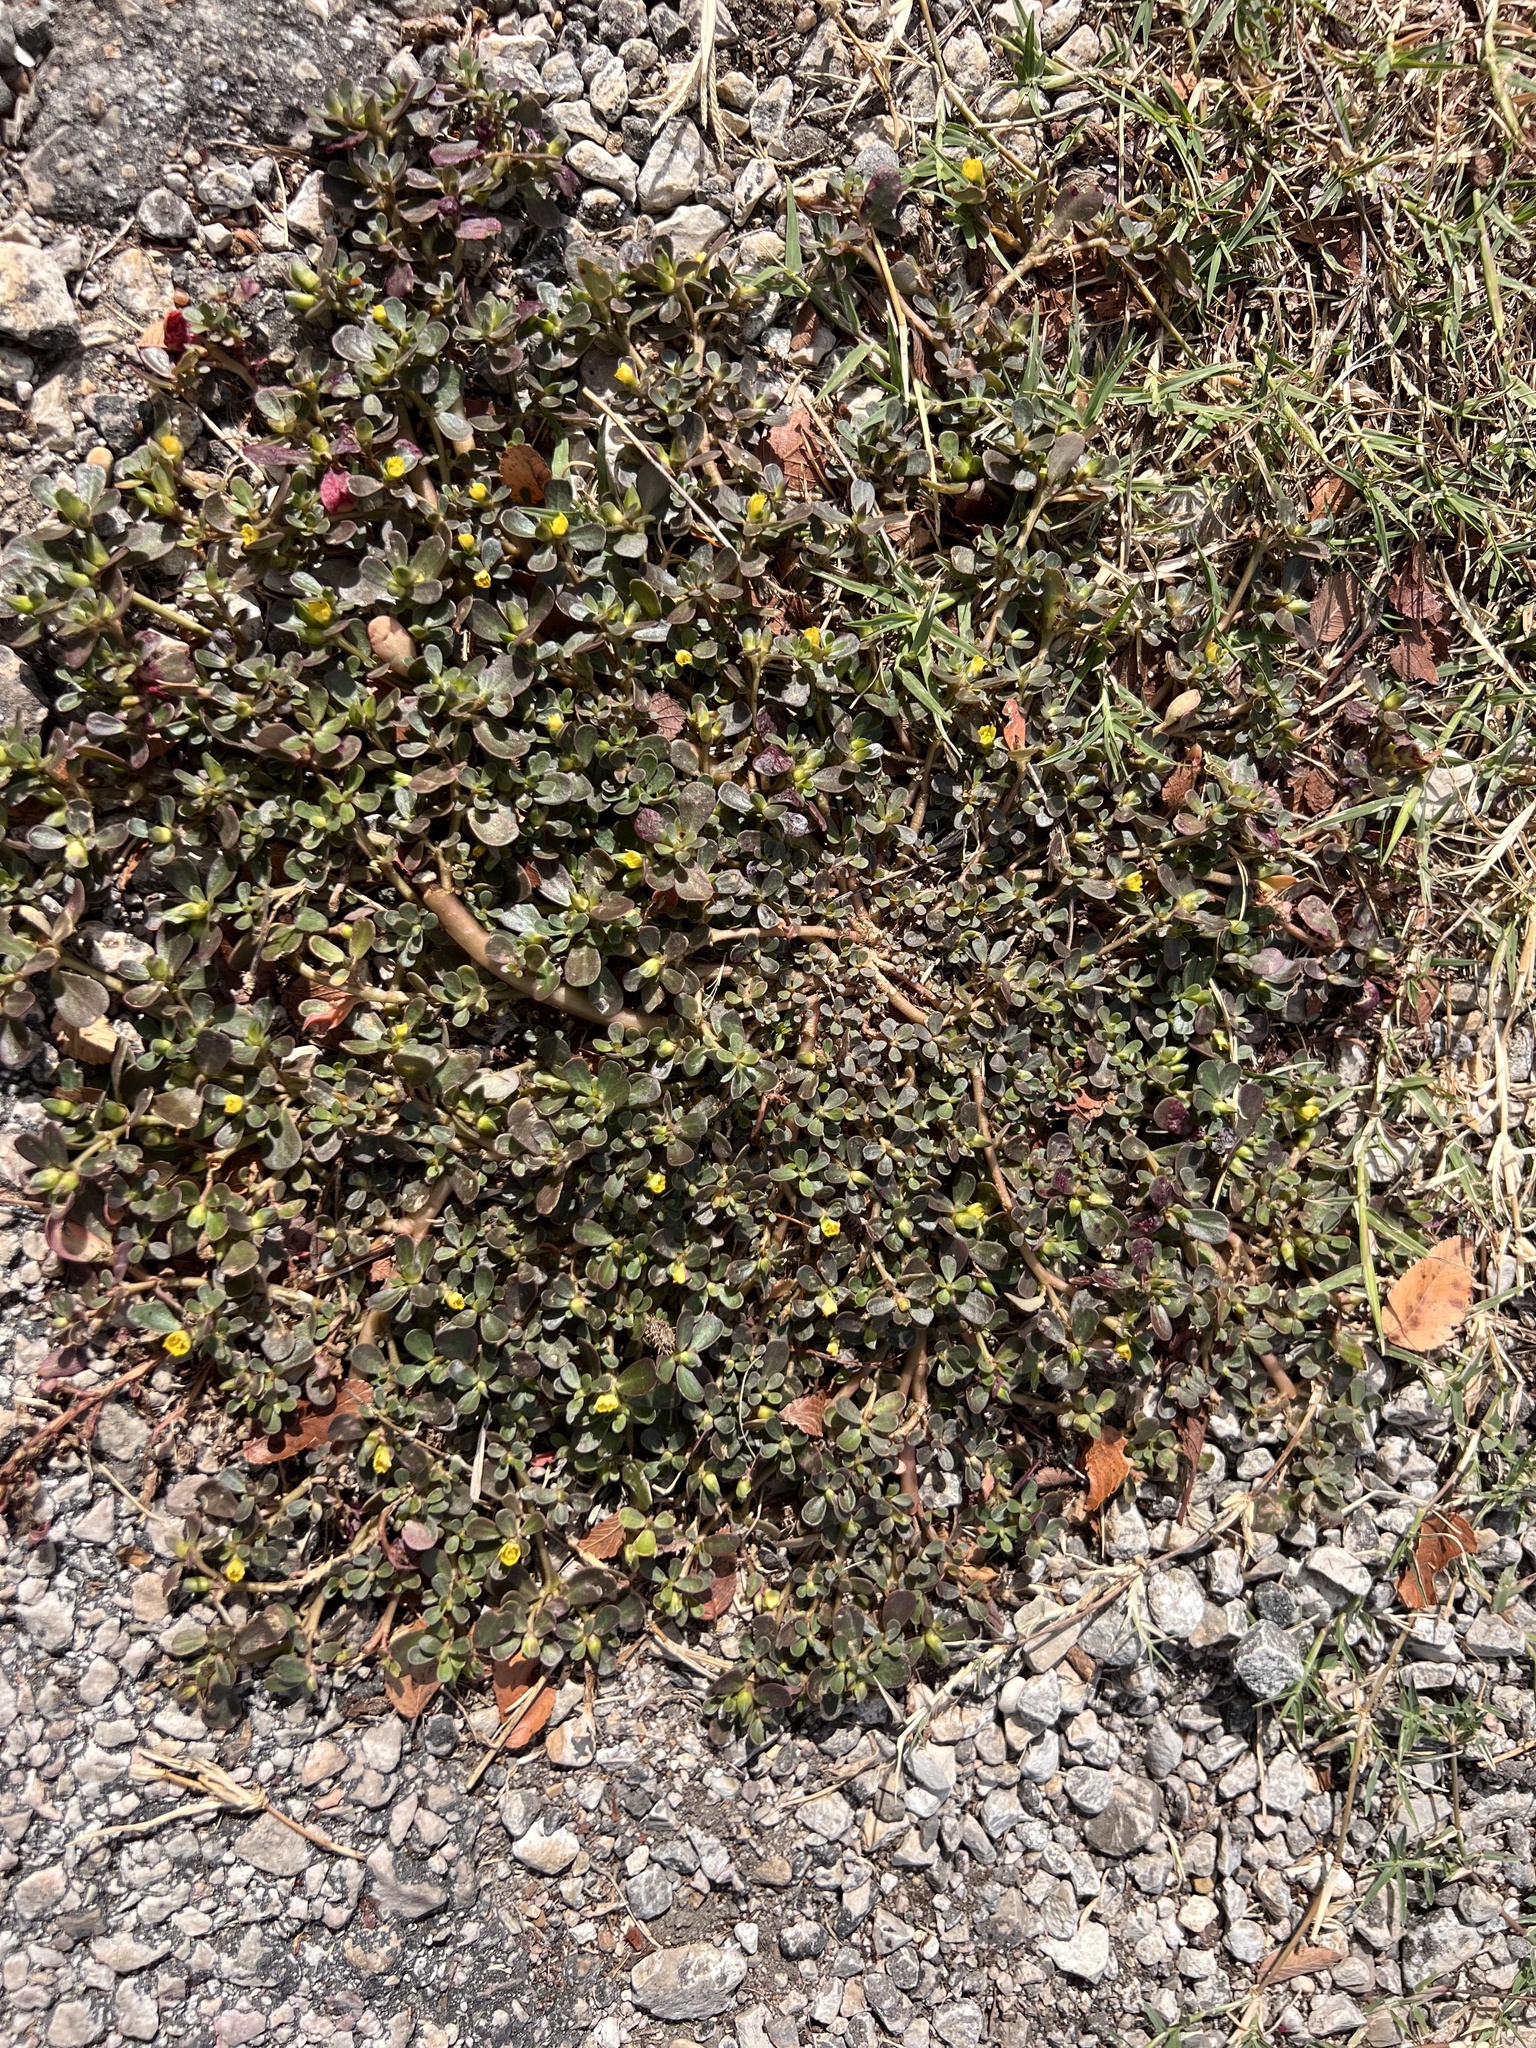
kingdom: Plantae
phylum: Tracheophyta
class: Magnoliopsida
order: Caryophyllales
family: Portulacaceae
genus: Portulaca
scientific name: Portulaca oleracea
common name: Common purslane
